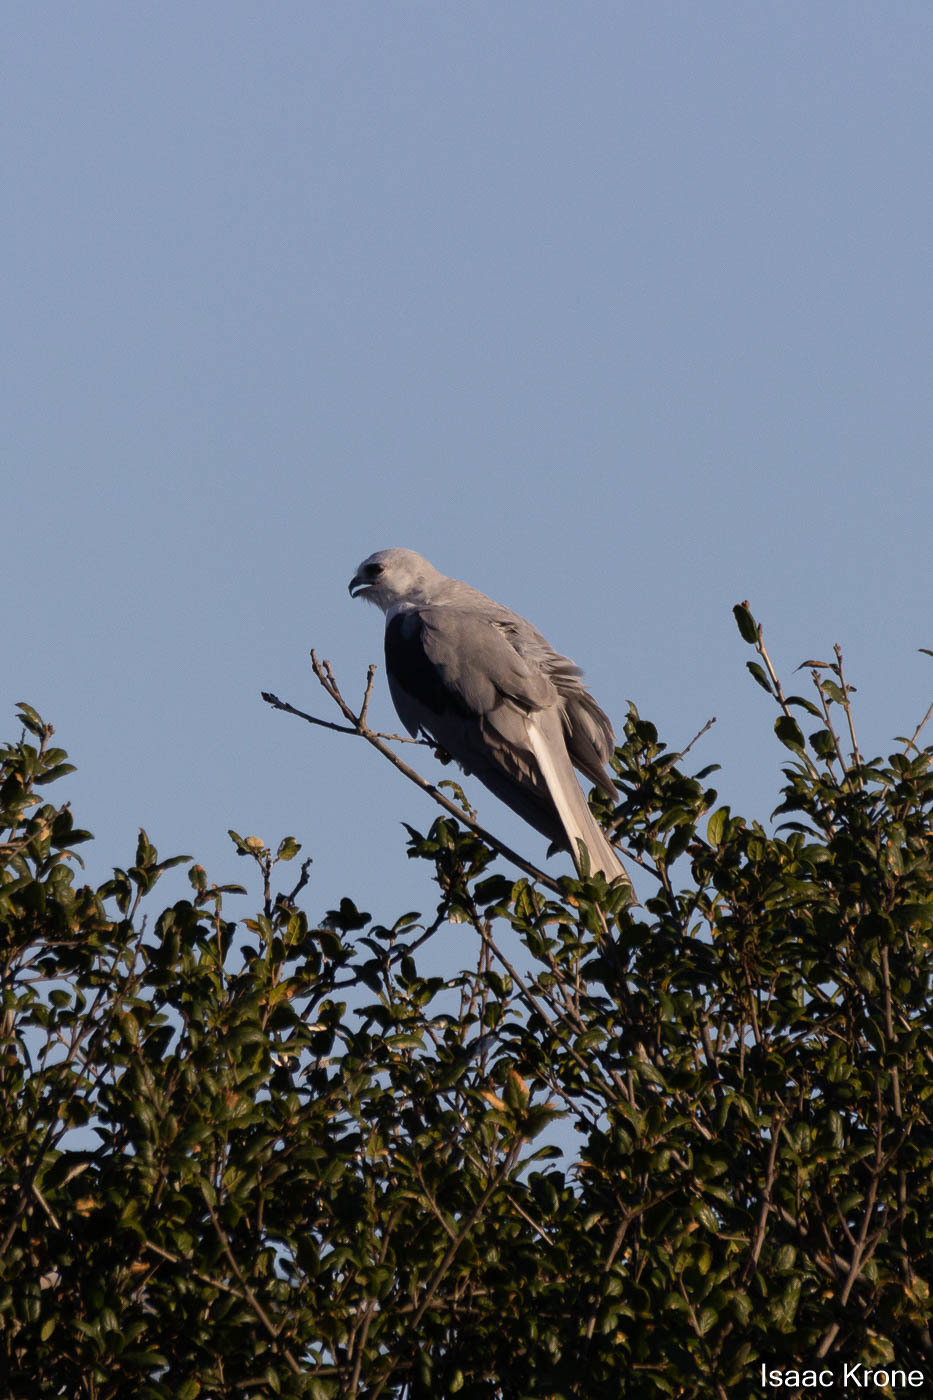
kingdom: Animalia
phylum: Chordata
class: Aves
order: Accipitriformes
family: Accipitridae
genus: Elanus
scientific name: Elanus leucurus
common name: White-tailed kite
